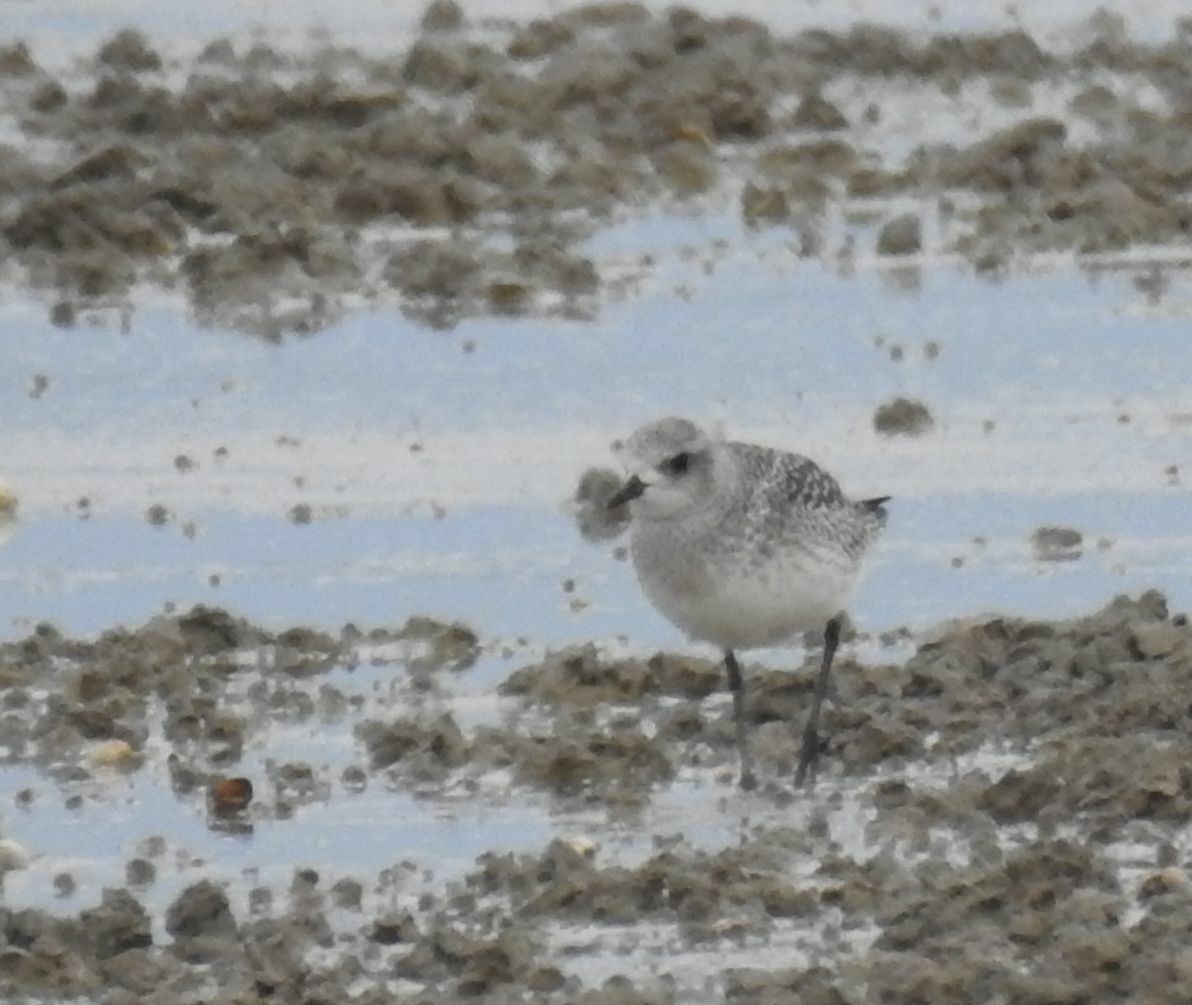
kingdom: Animalia
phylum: Chordata
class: Aves
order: Charadriiformes
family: Charadriidae
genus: Pluvialis
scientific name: Pluvialis squatarola
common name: Grey plover
